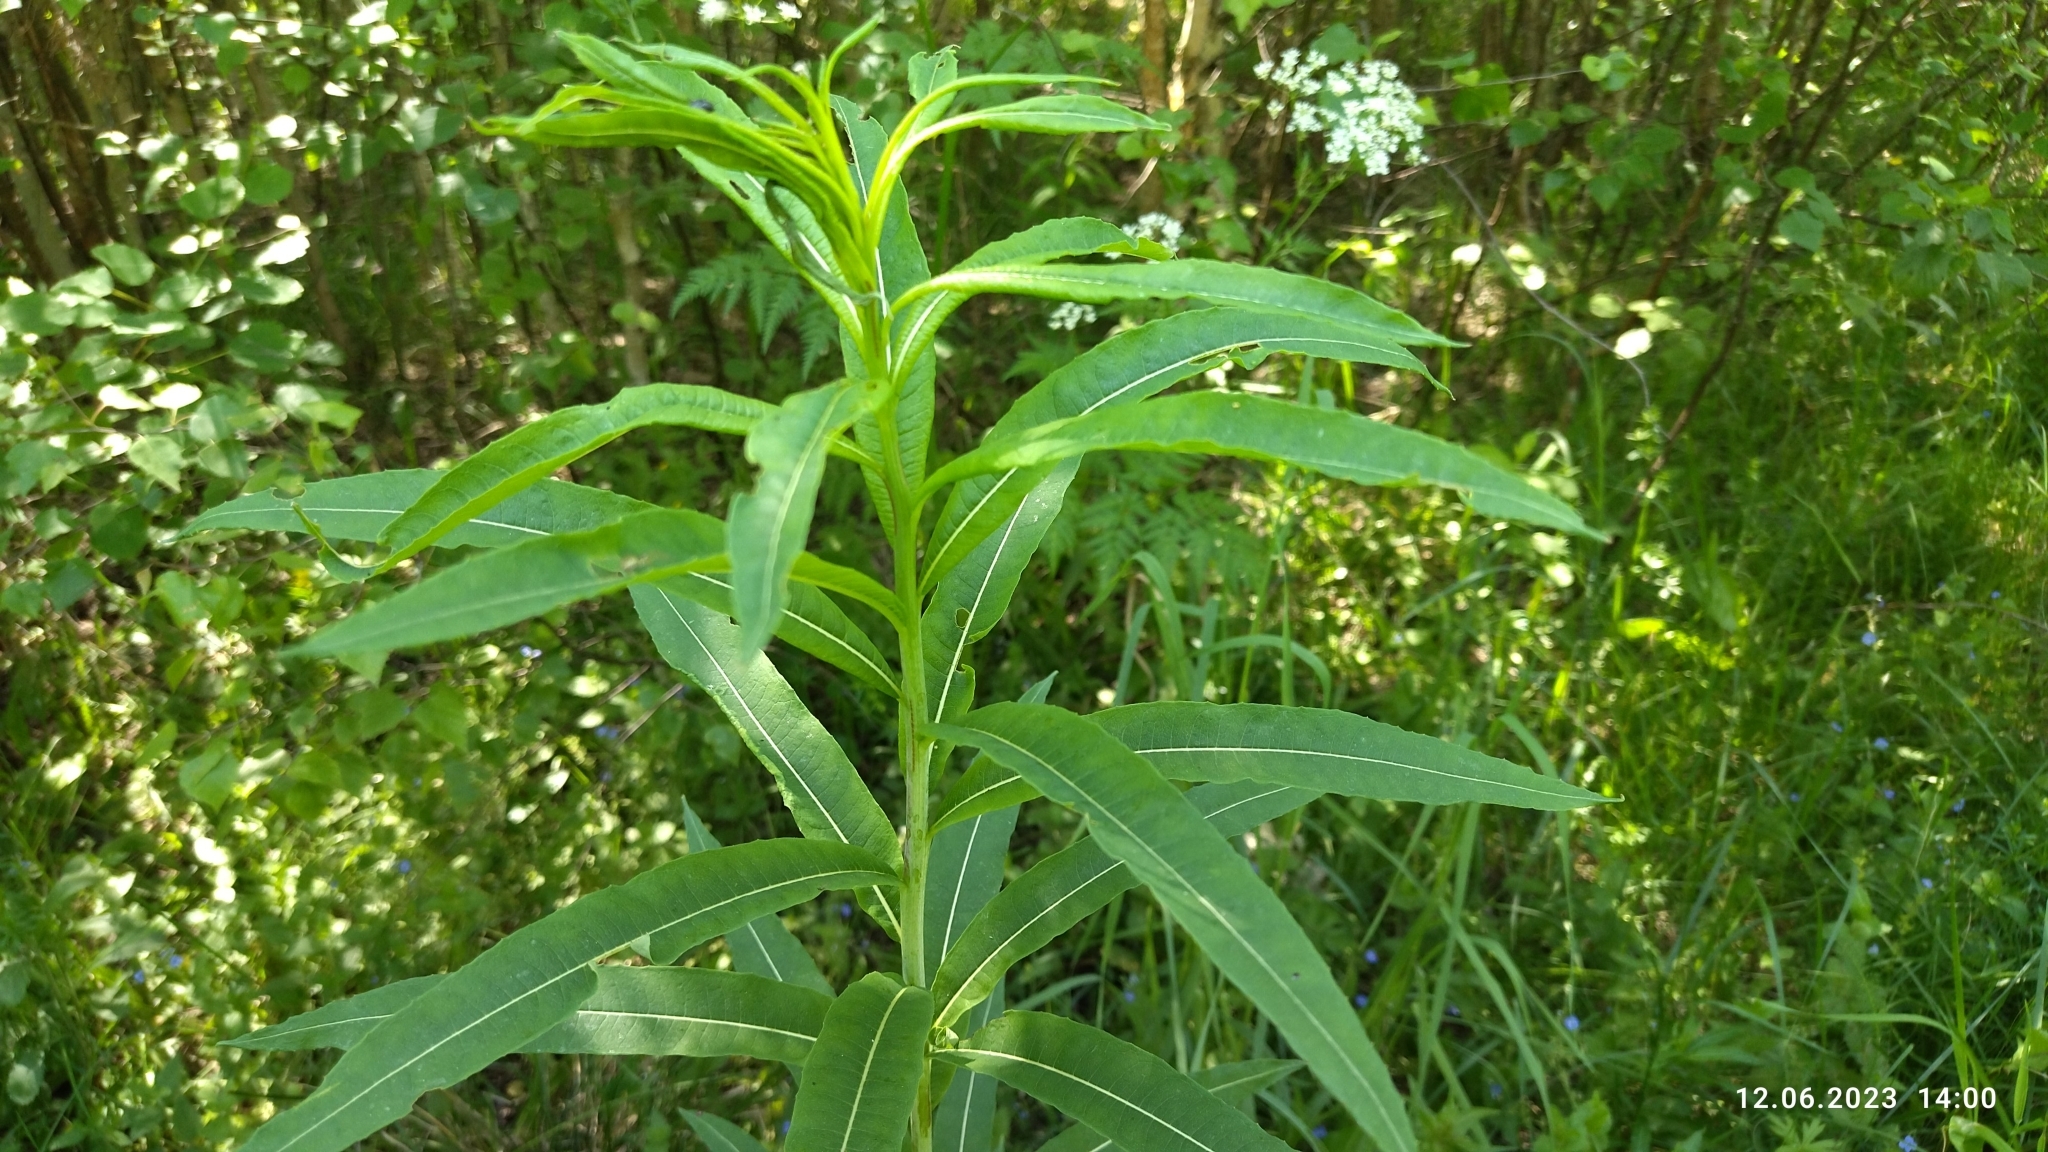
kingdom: Plantae
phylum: Tracheophyta
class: Magnoliopsida
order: Myrtales
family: Onagraceae
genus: Chamaenerion
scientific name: Chamaenerion angustifolium
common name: Fireweed
